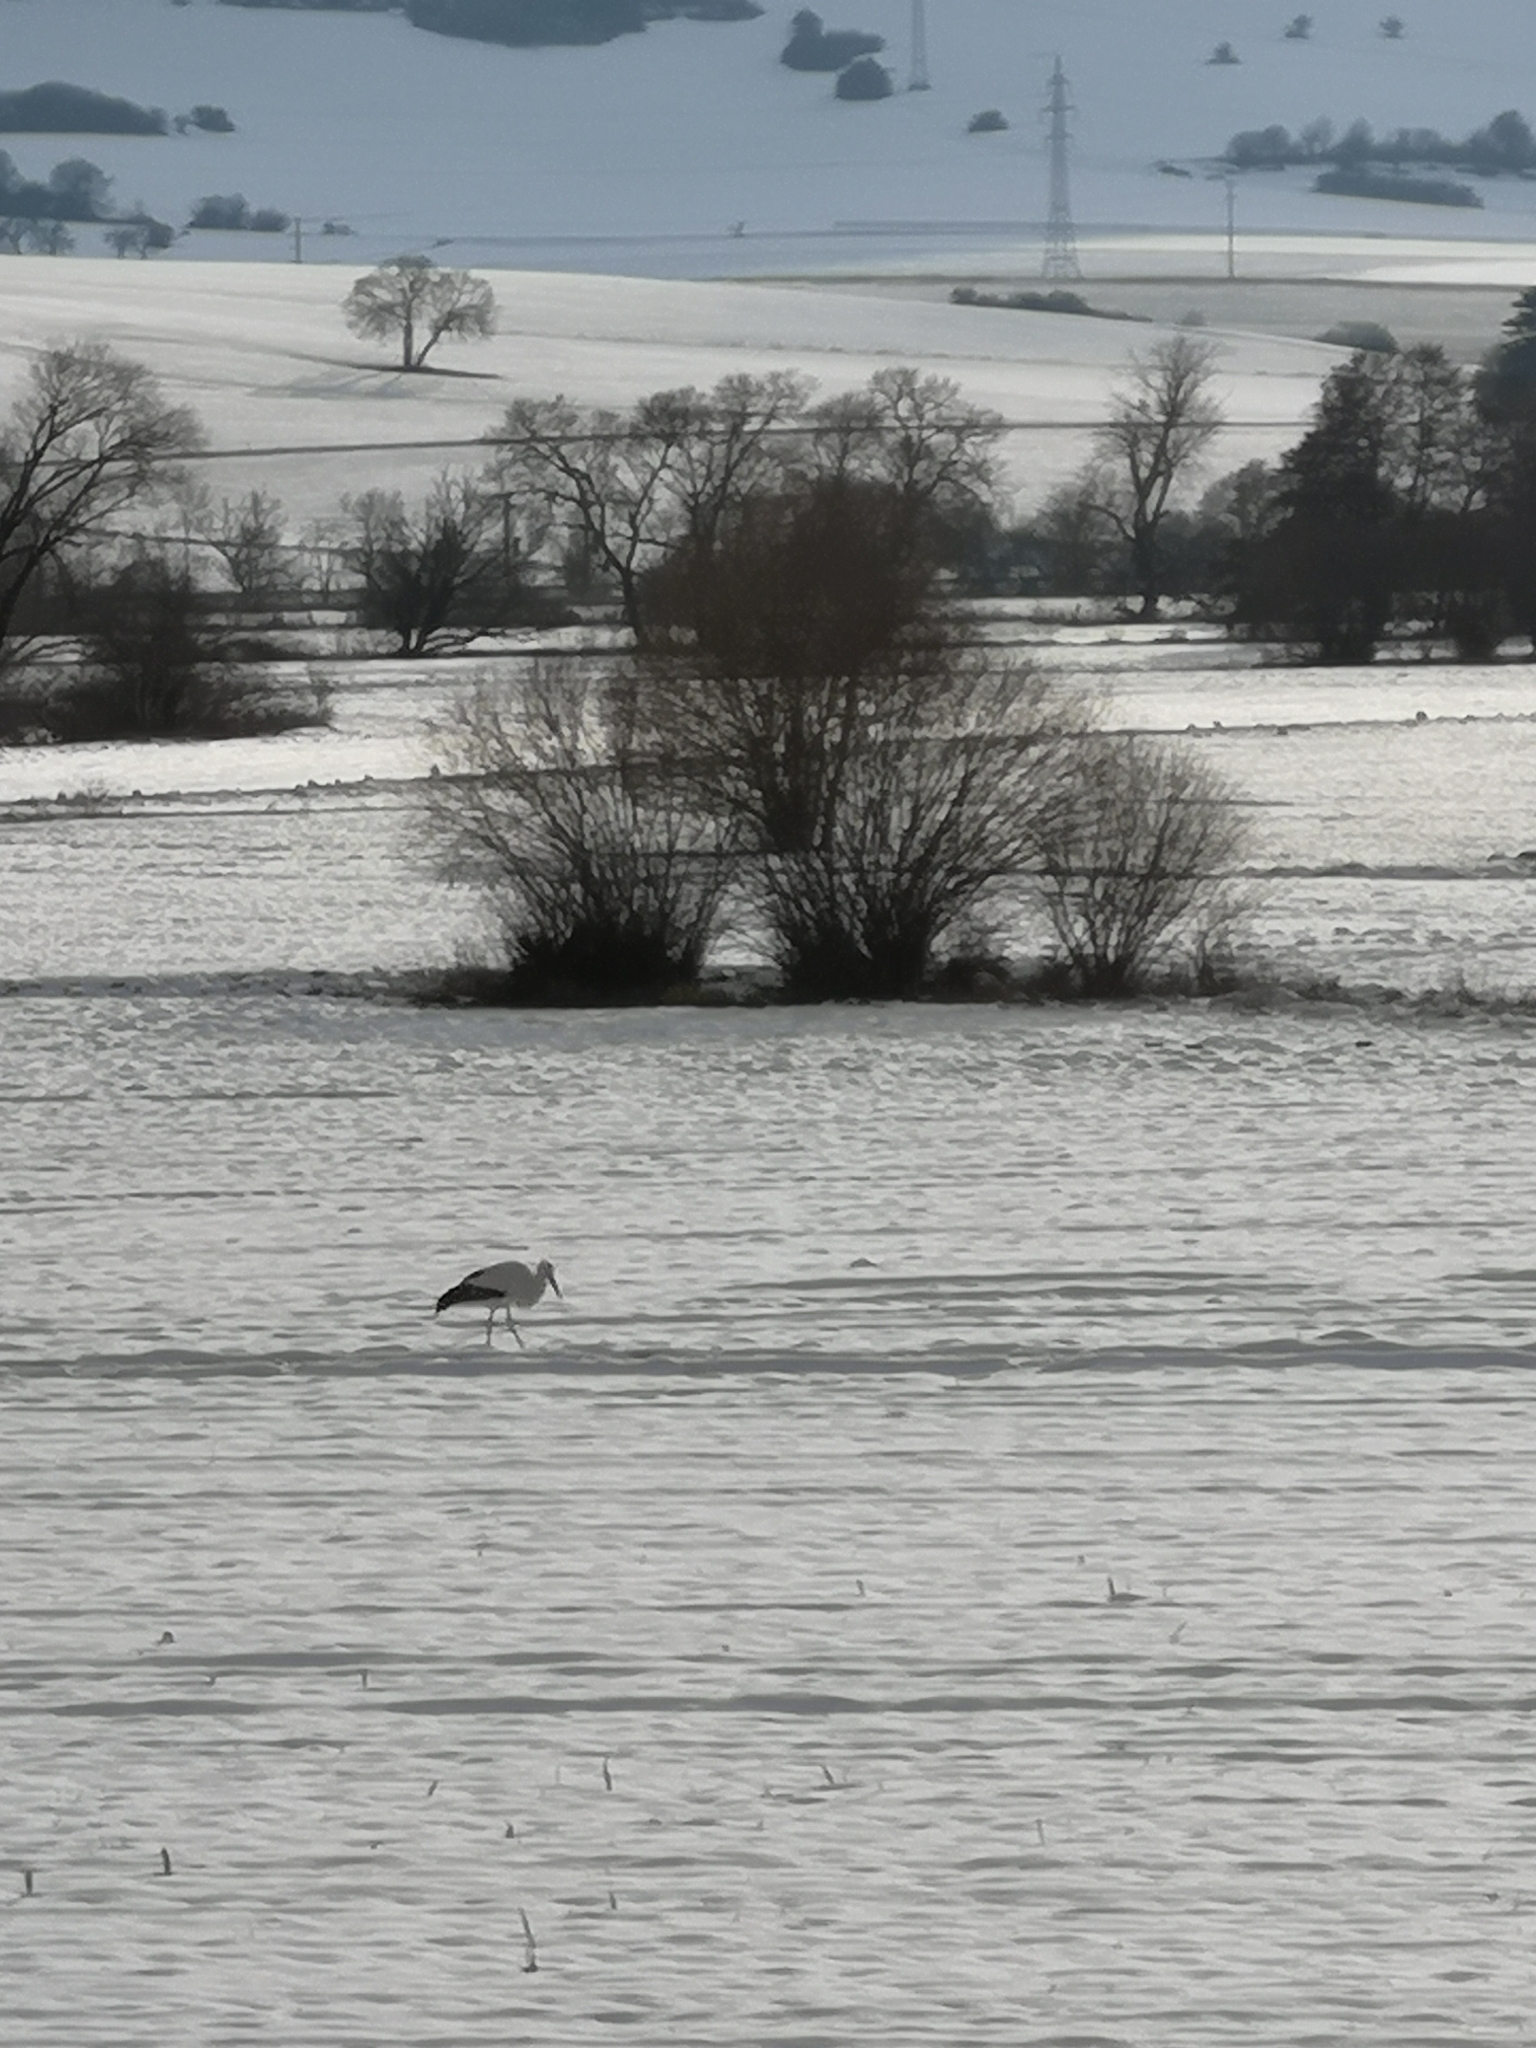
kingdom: Animalia
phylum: Chordata
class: Aves
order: Ciconiiformes
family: Ciconiidae
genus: Ciconia
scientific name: Ciconia ciconia
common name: White stork
